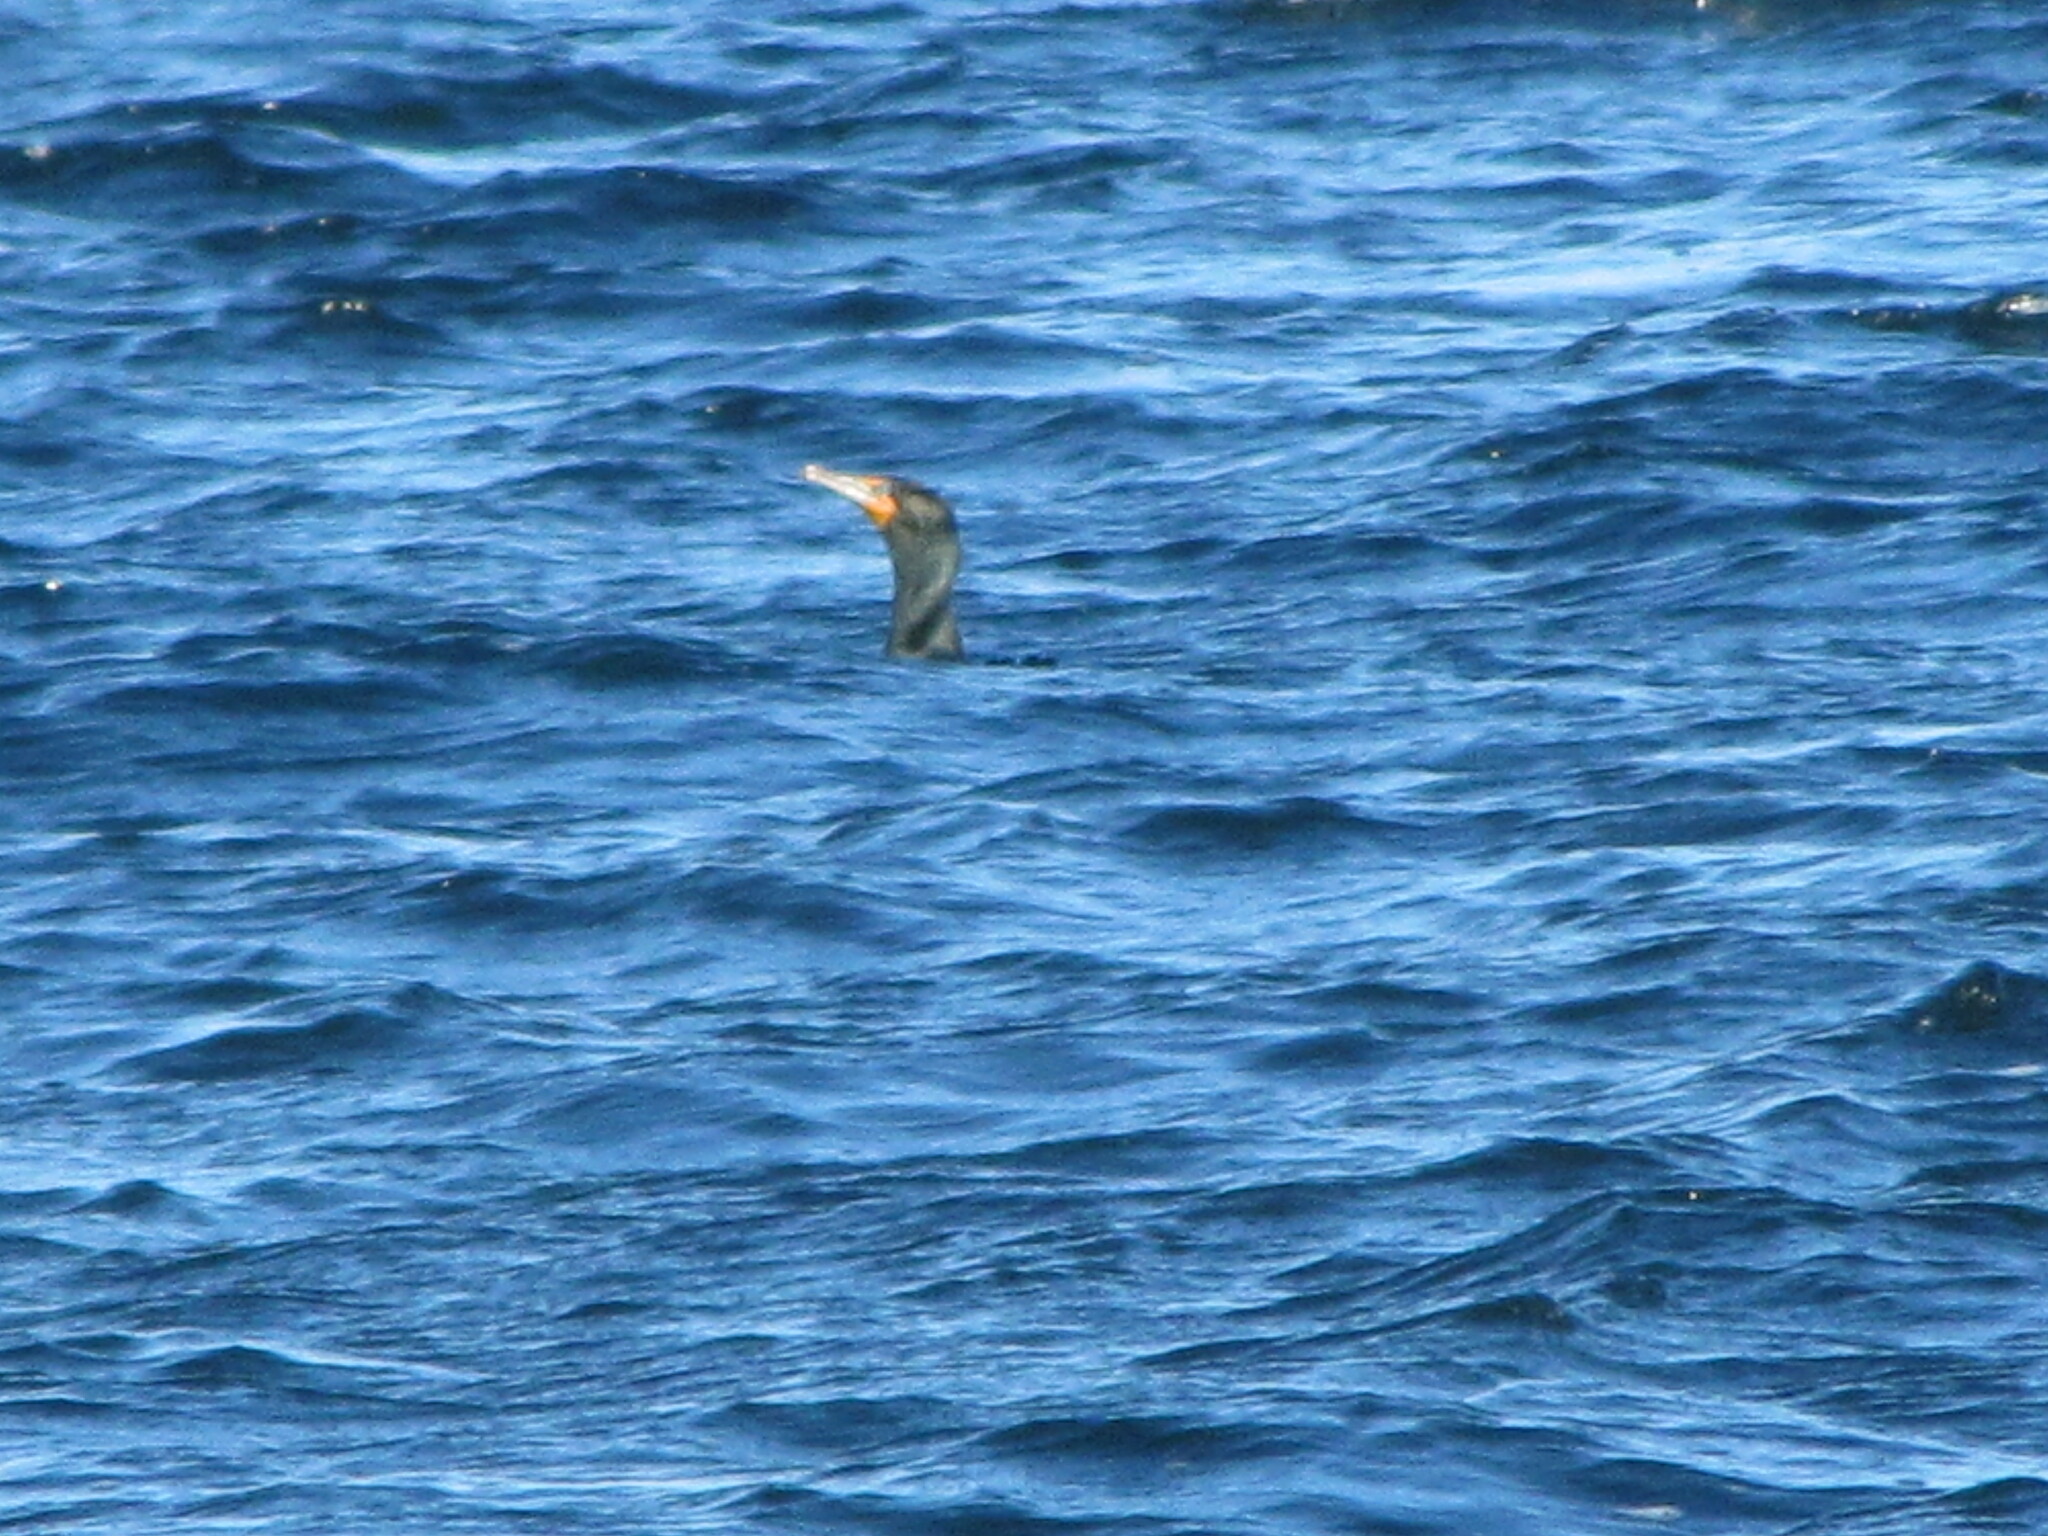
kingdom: Animalia
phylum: Chordata
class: Aves
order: Suliformes
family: Phalacrocoracidae
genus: Phalacrocorax
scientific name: Phalacrocorax auritus
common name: Double-crested cormorant
